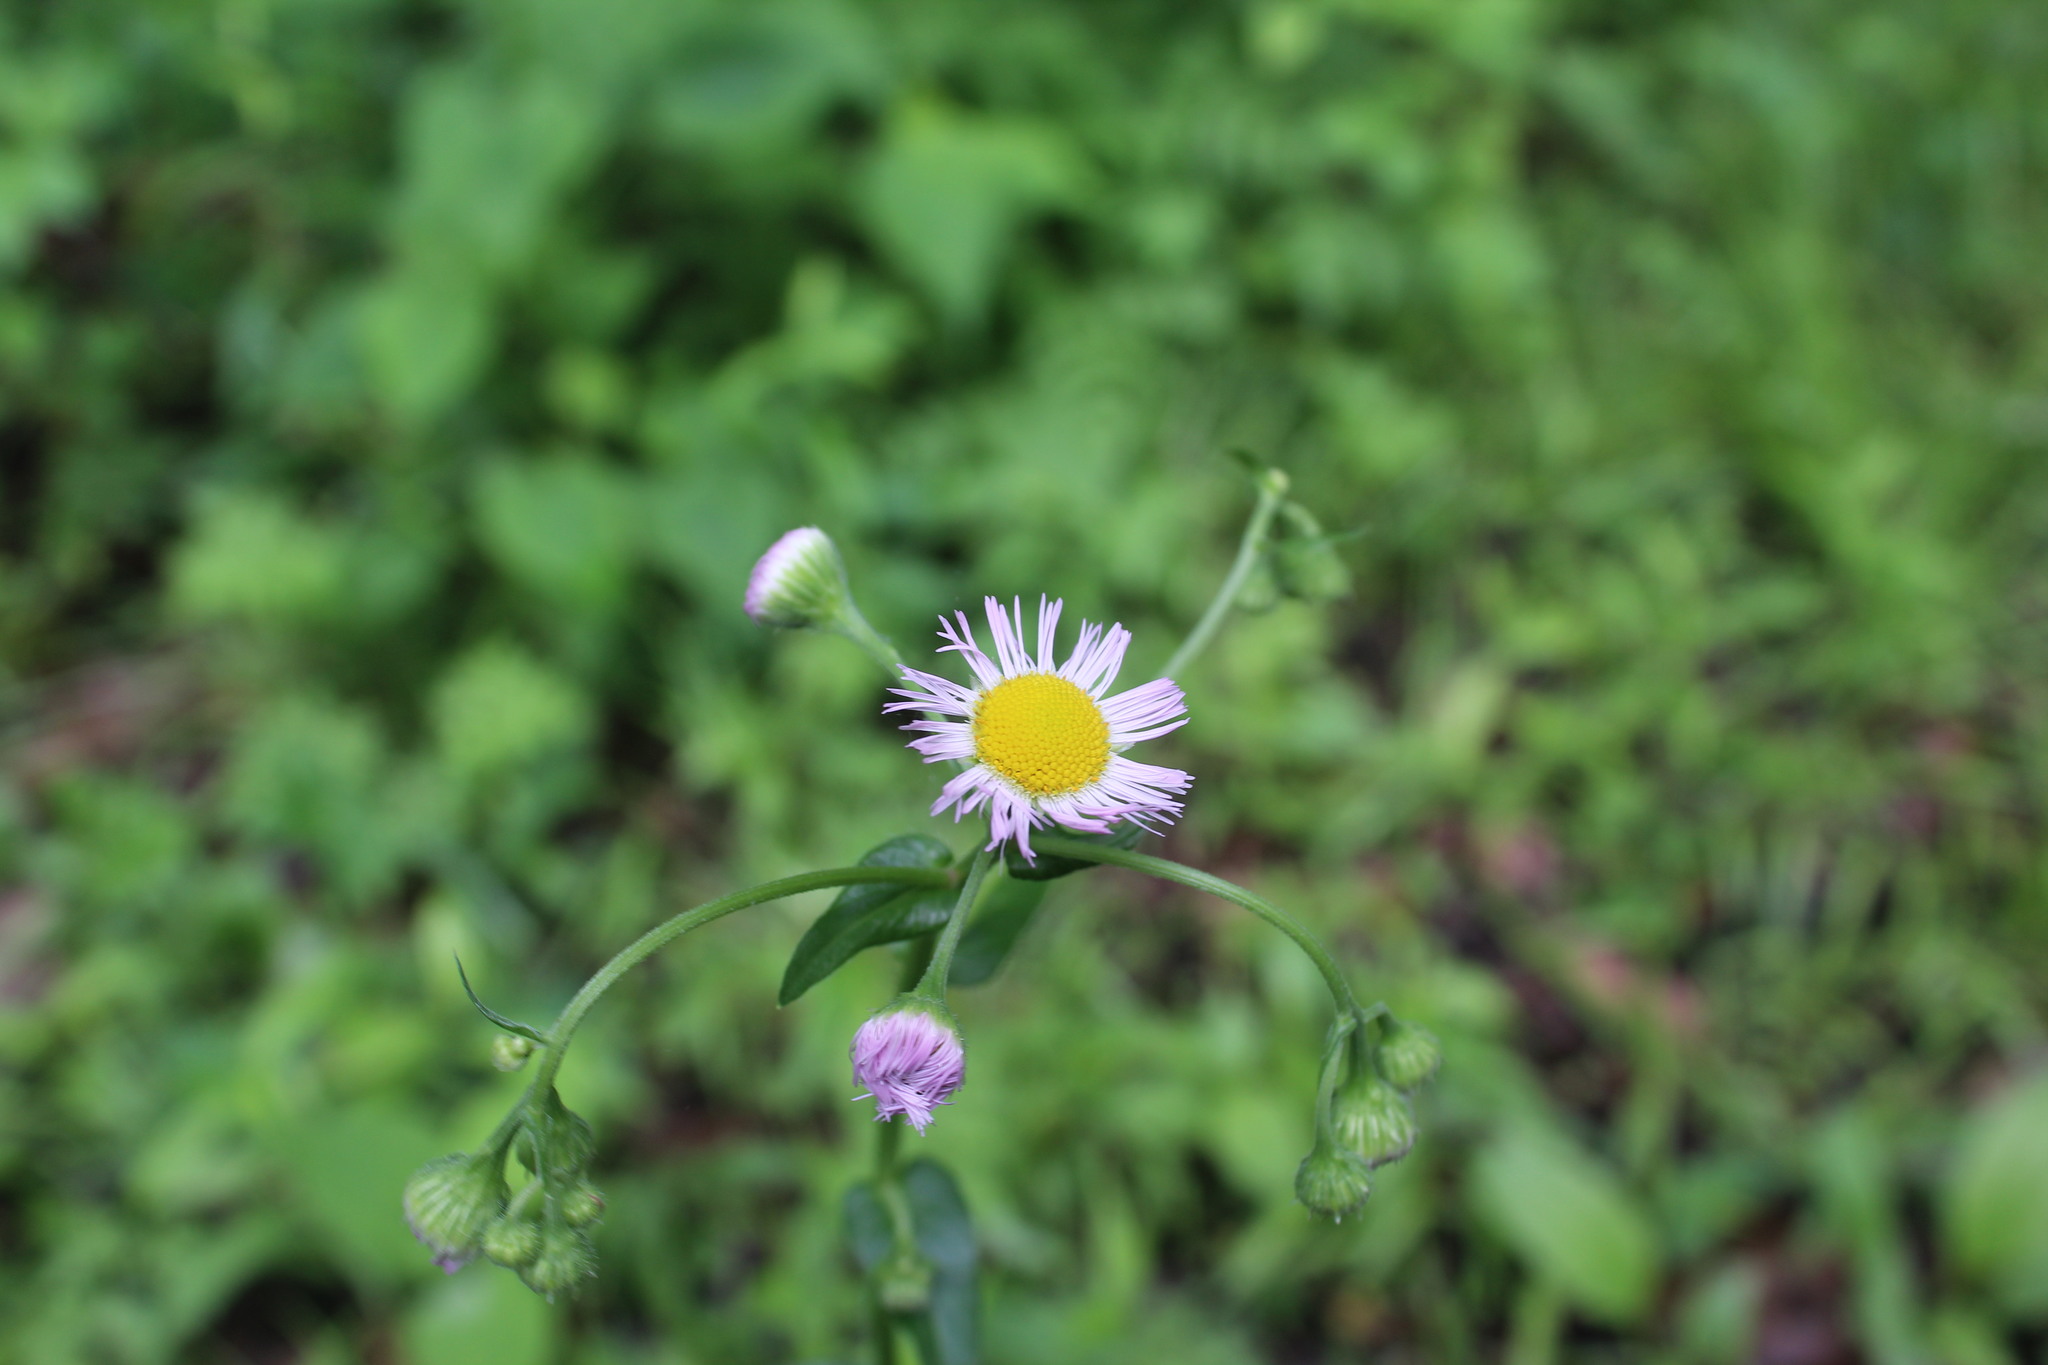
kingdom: Plantae
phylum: Tracheophyta
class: Magnoliopsida
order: Asterales
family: Asteraceae
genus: Erigeron
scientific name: Erigeron philadelphicus
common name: Robin's-plantain
